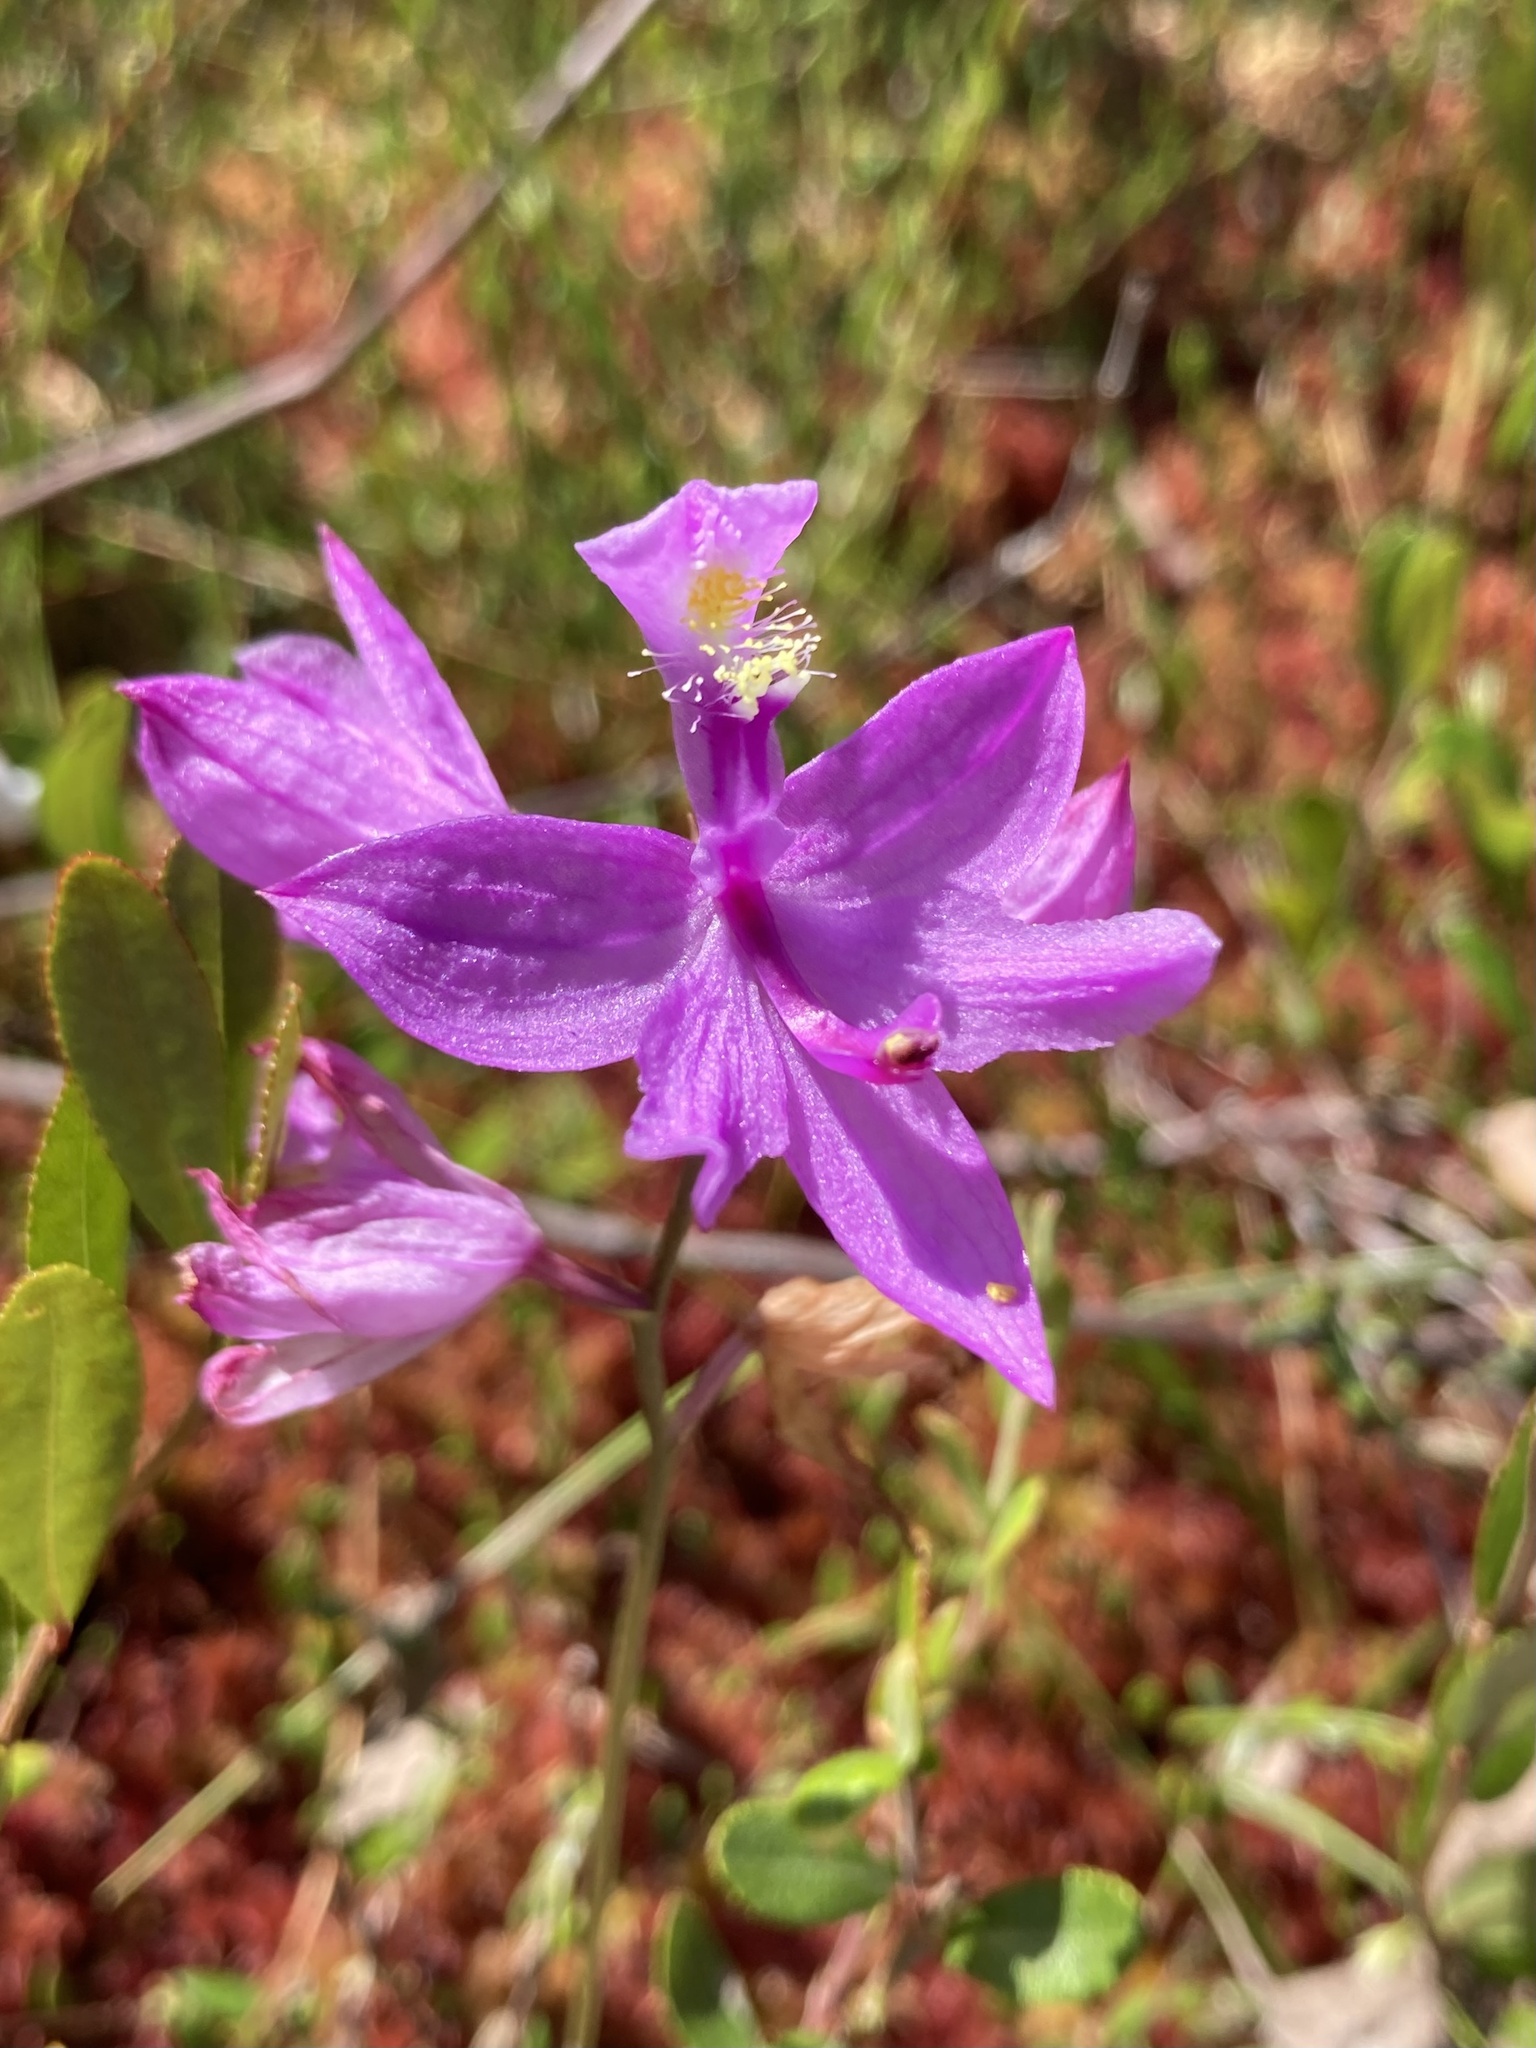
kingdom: Plantae
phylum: Tracheophyta
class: Liliopsida
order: Asparagales
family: Orchidaceae
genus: Calopogon
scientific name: Calopogon tuberosus
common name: Grass-pink
